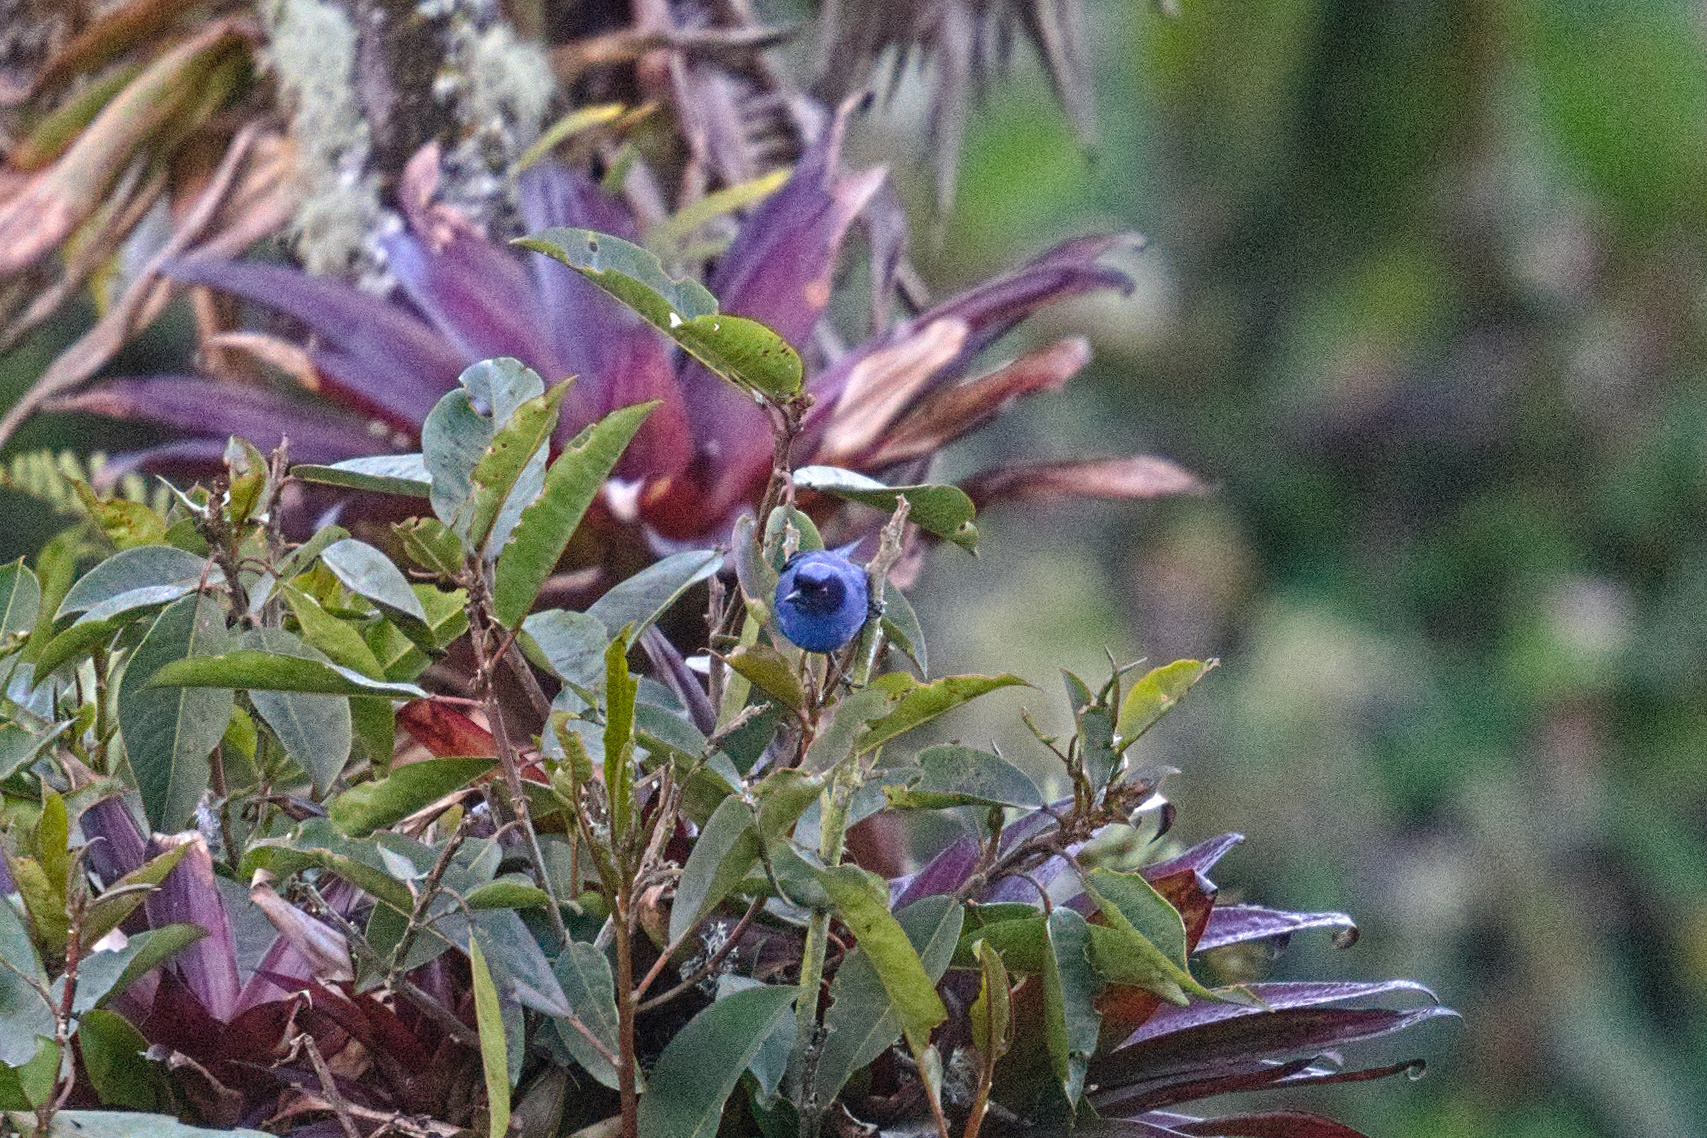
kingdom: Animalia
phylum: Chordata
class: Aves
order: Passeriformes
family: Thraupidae
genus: Diglossa
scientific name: Diglossa cyanea
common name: Masked flowerpiercer
